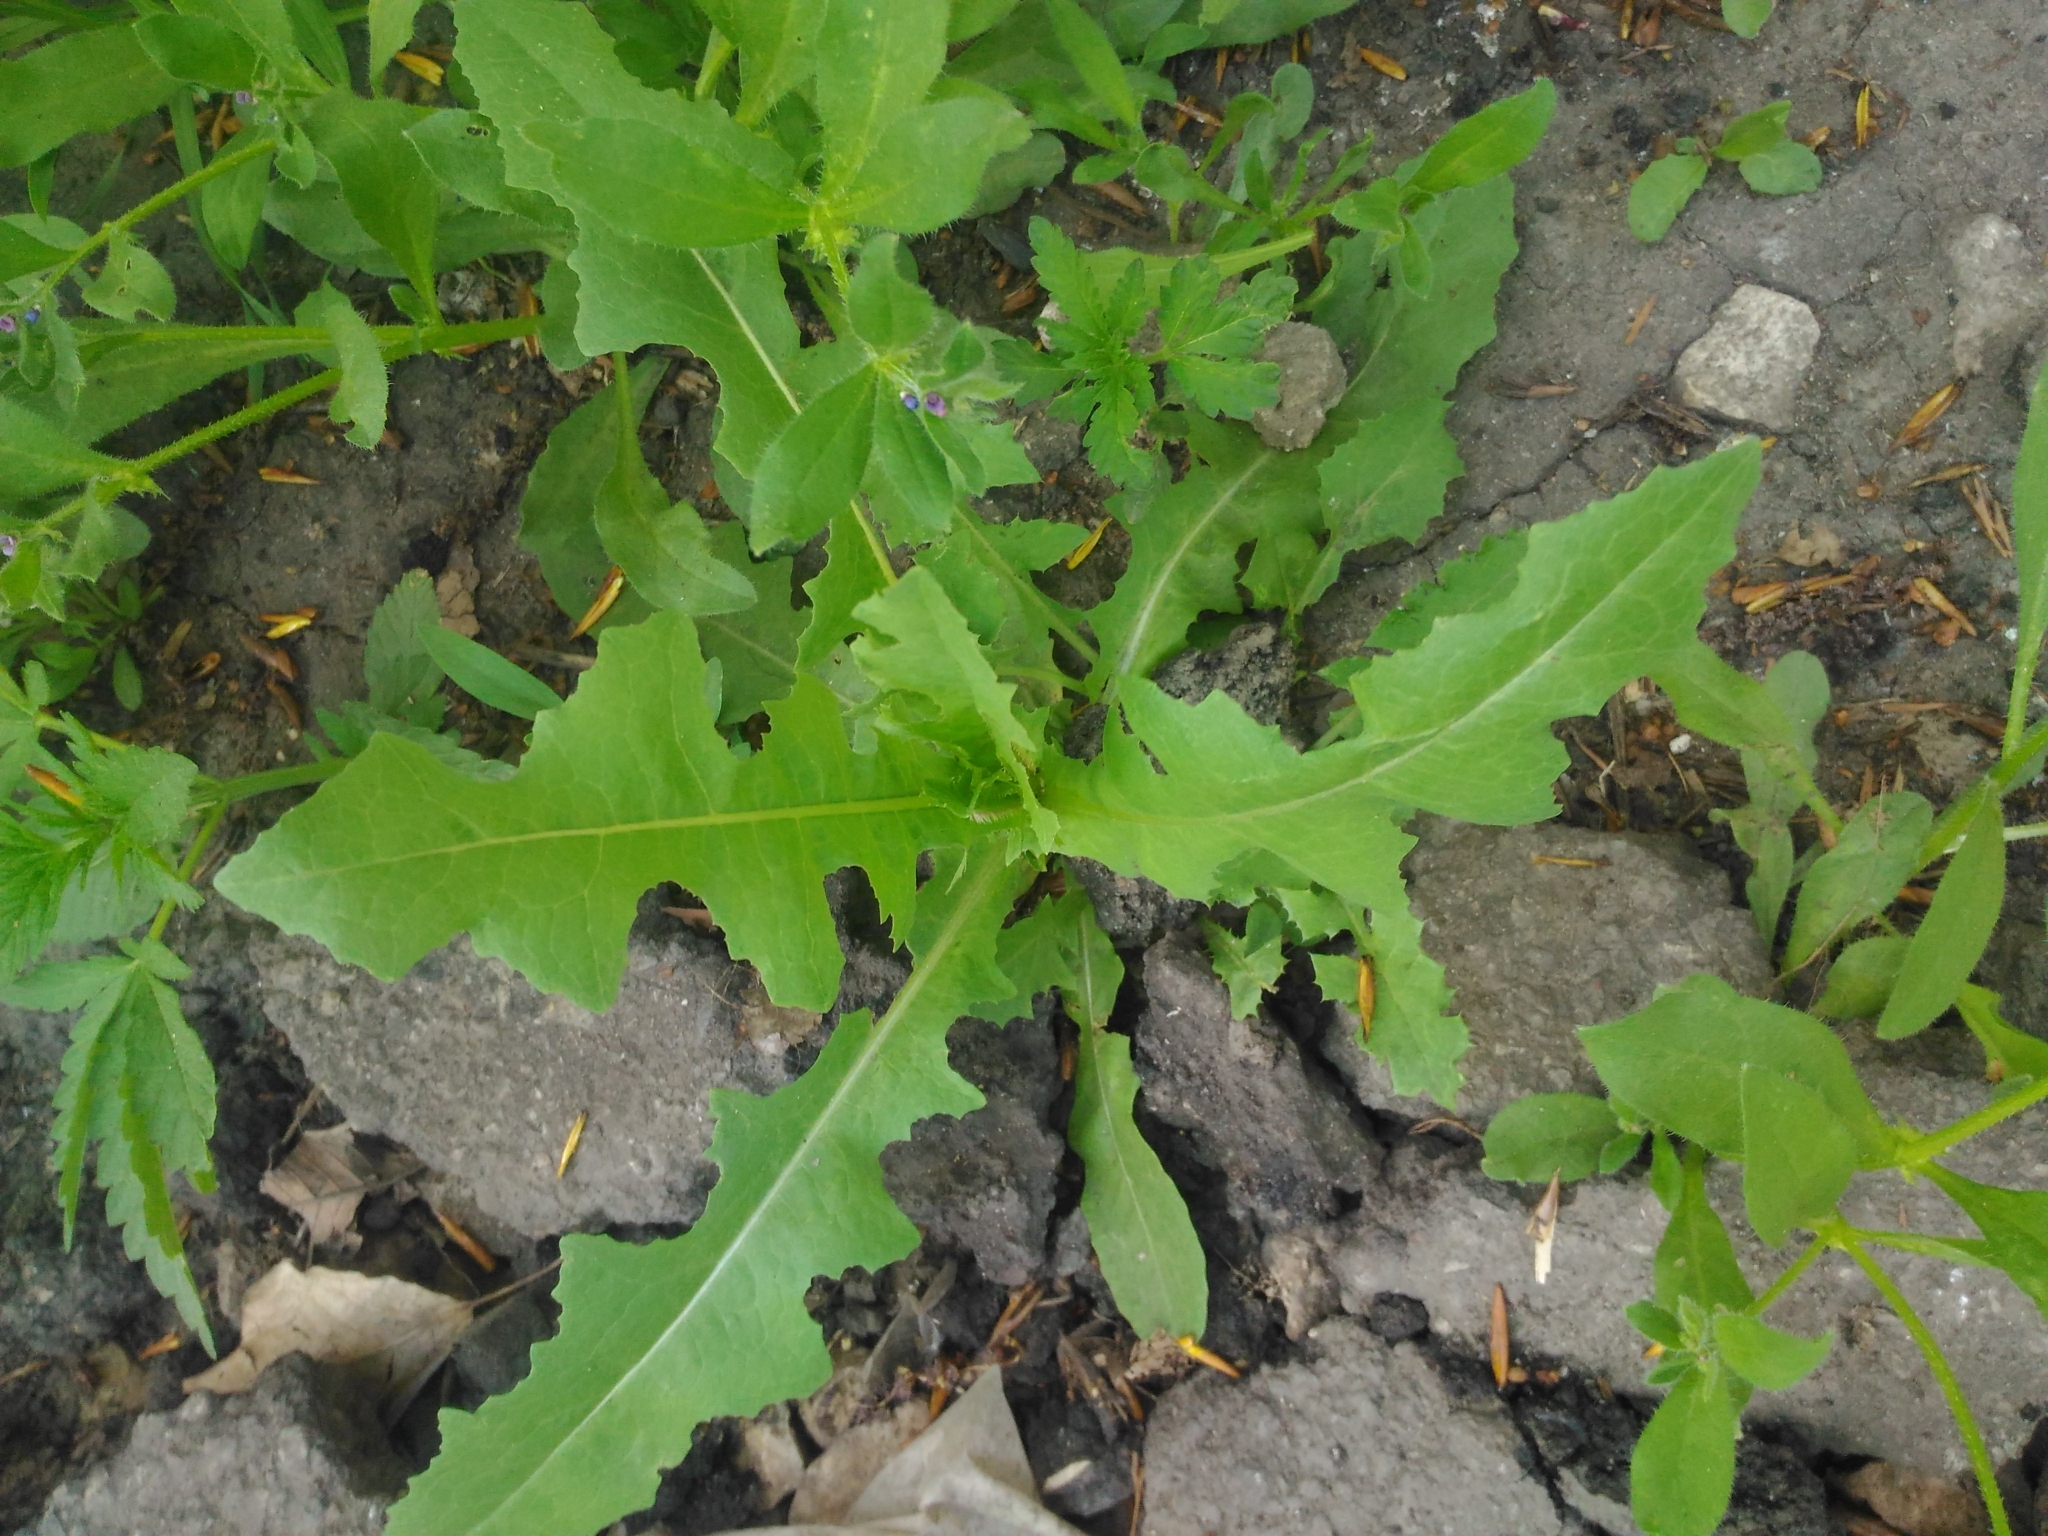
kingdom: Plantae
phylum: Tracheophyta
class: Magnoliopsida
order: Asterales
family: Asteraceae
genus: Lactuca
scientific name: Lactuca serriola
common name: Prickly lettuce
